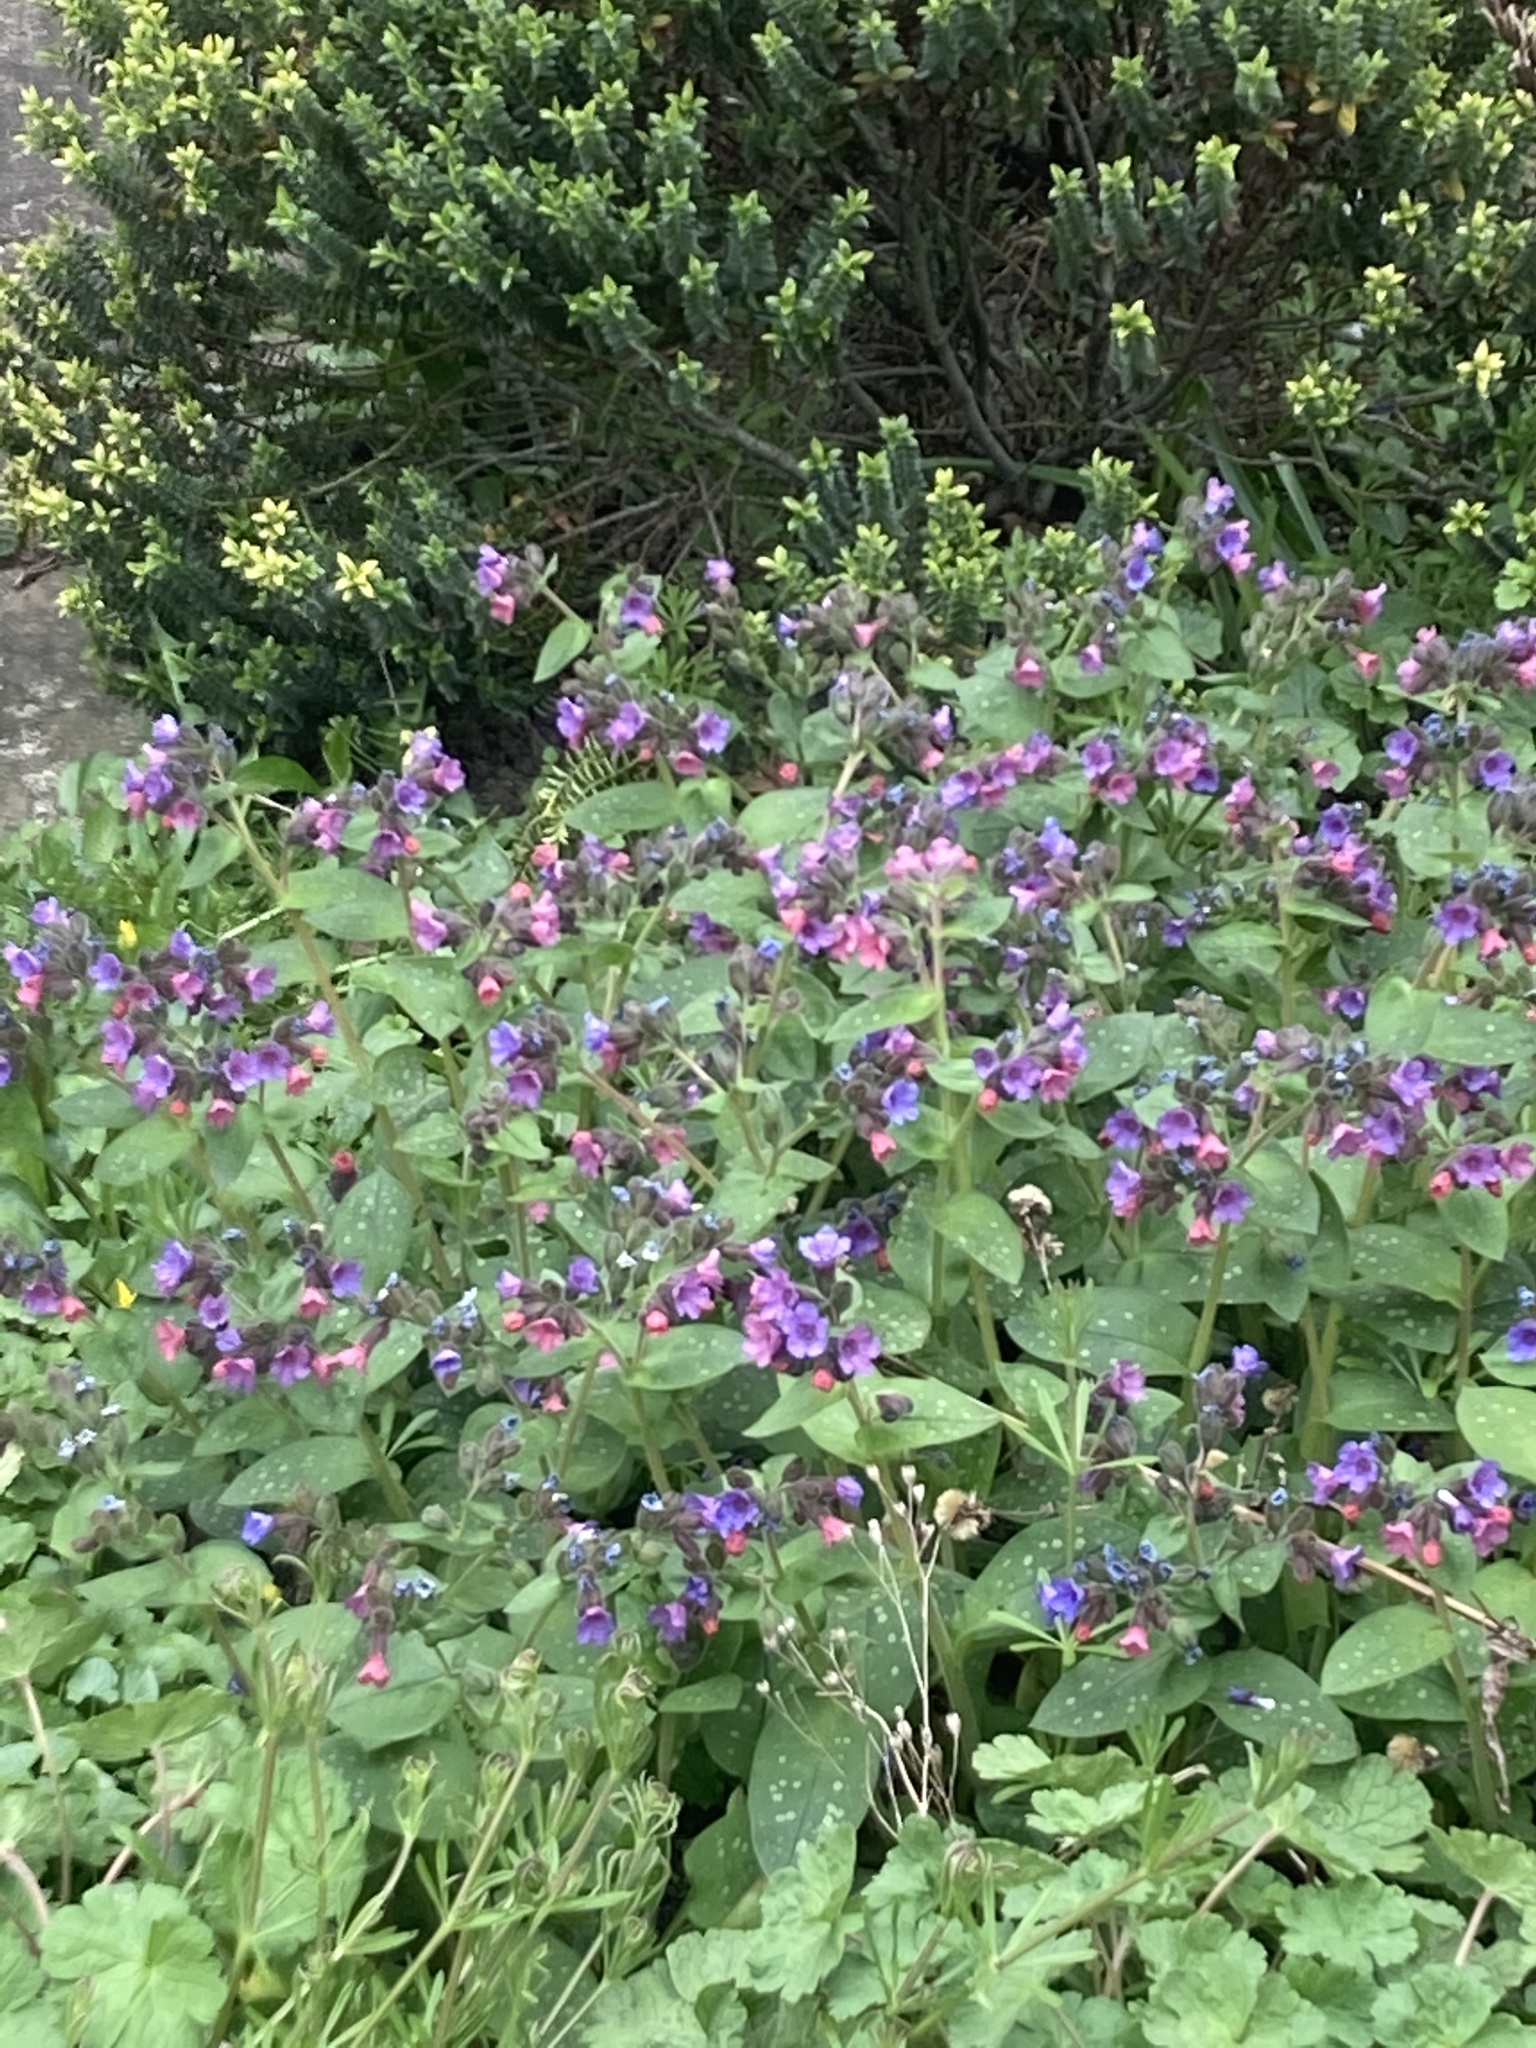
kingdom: Plantae
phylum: Tracheophyta
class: Magnoliopsida
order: Boraginales
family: Boraginaceae
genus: Pulmonaria
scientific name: Pulmonaria officinalis
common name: Lungwort
